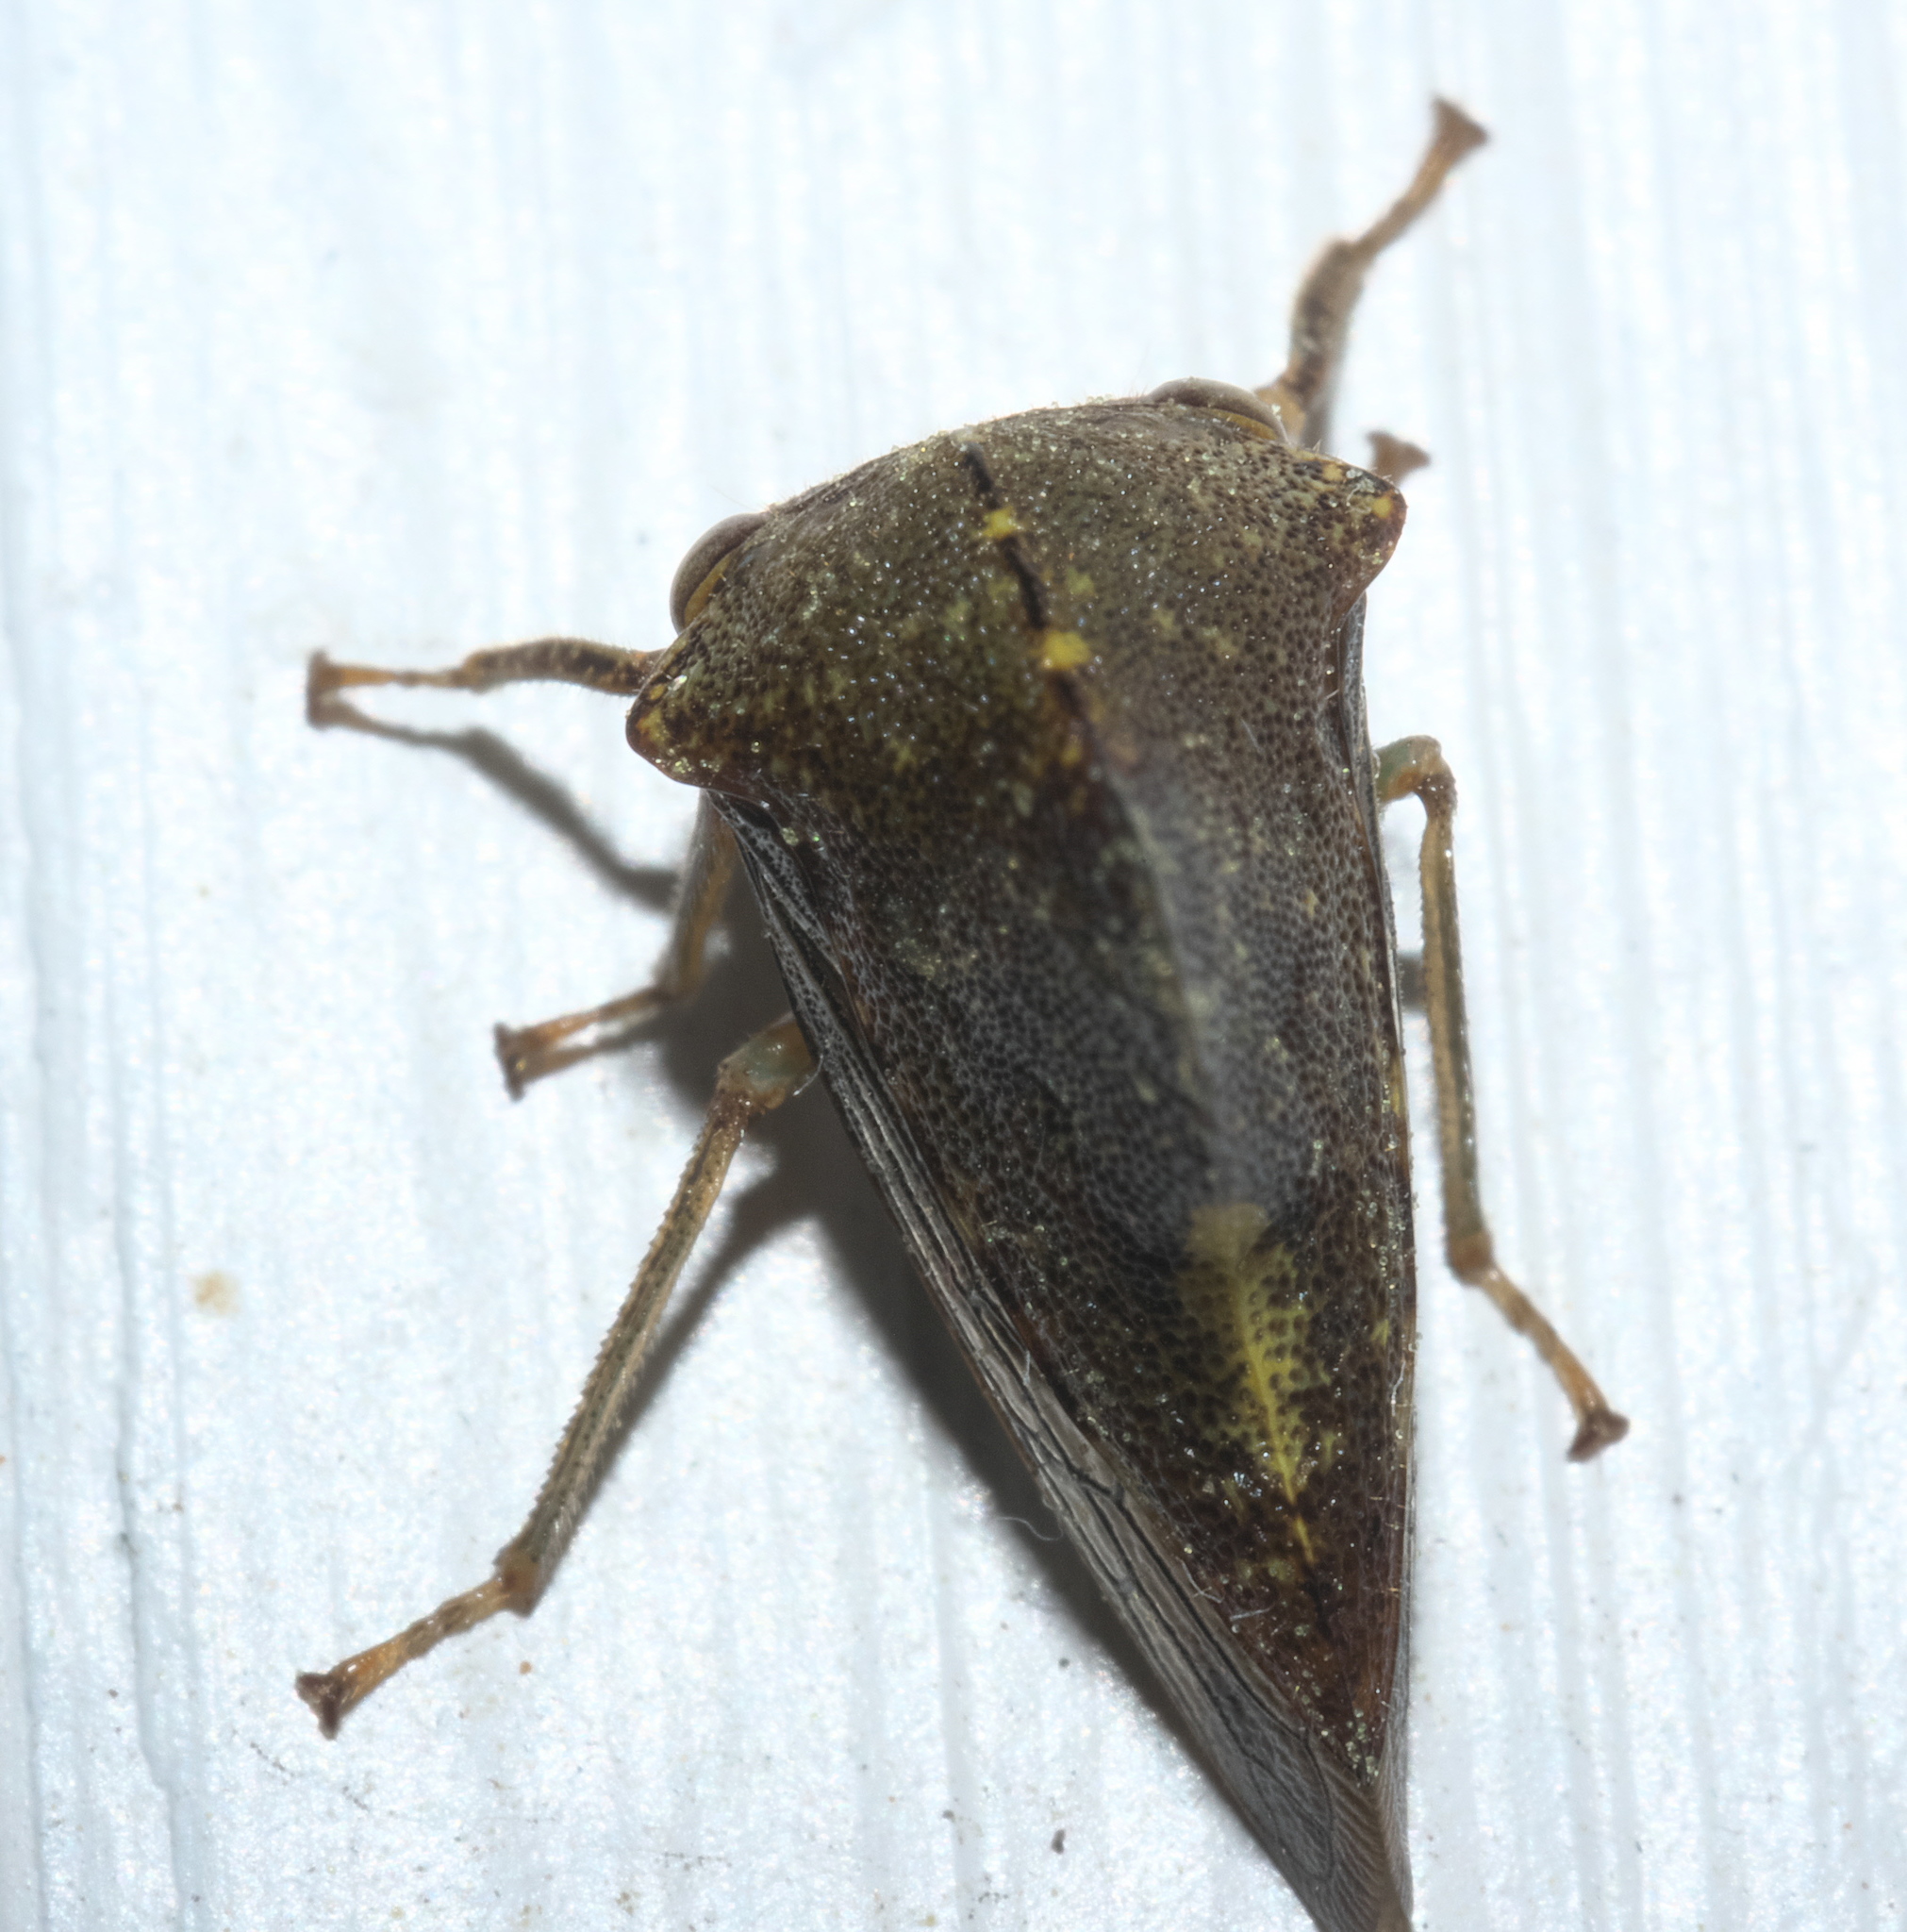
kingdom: Animalia
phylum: Arthropoda
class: Insecta
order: Hemiptera
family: Membracidae
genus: Telamona
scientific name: Telamona monticola
